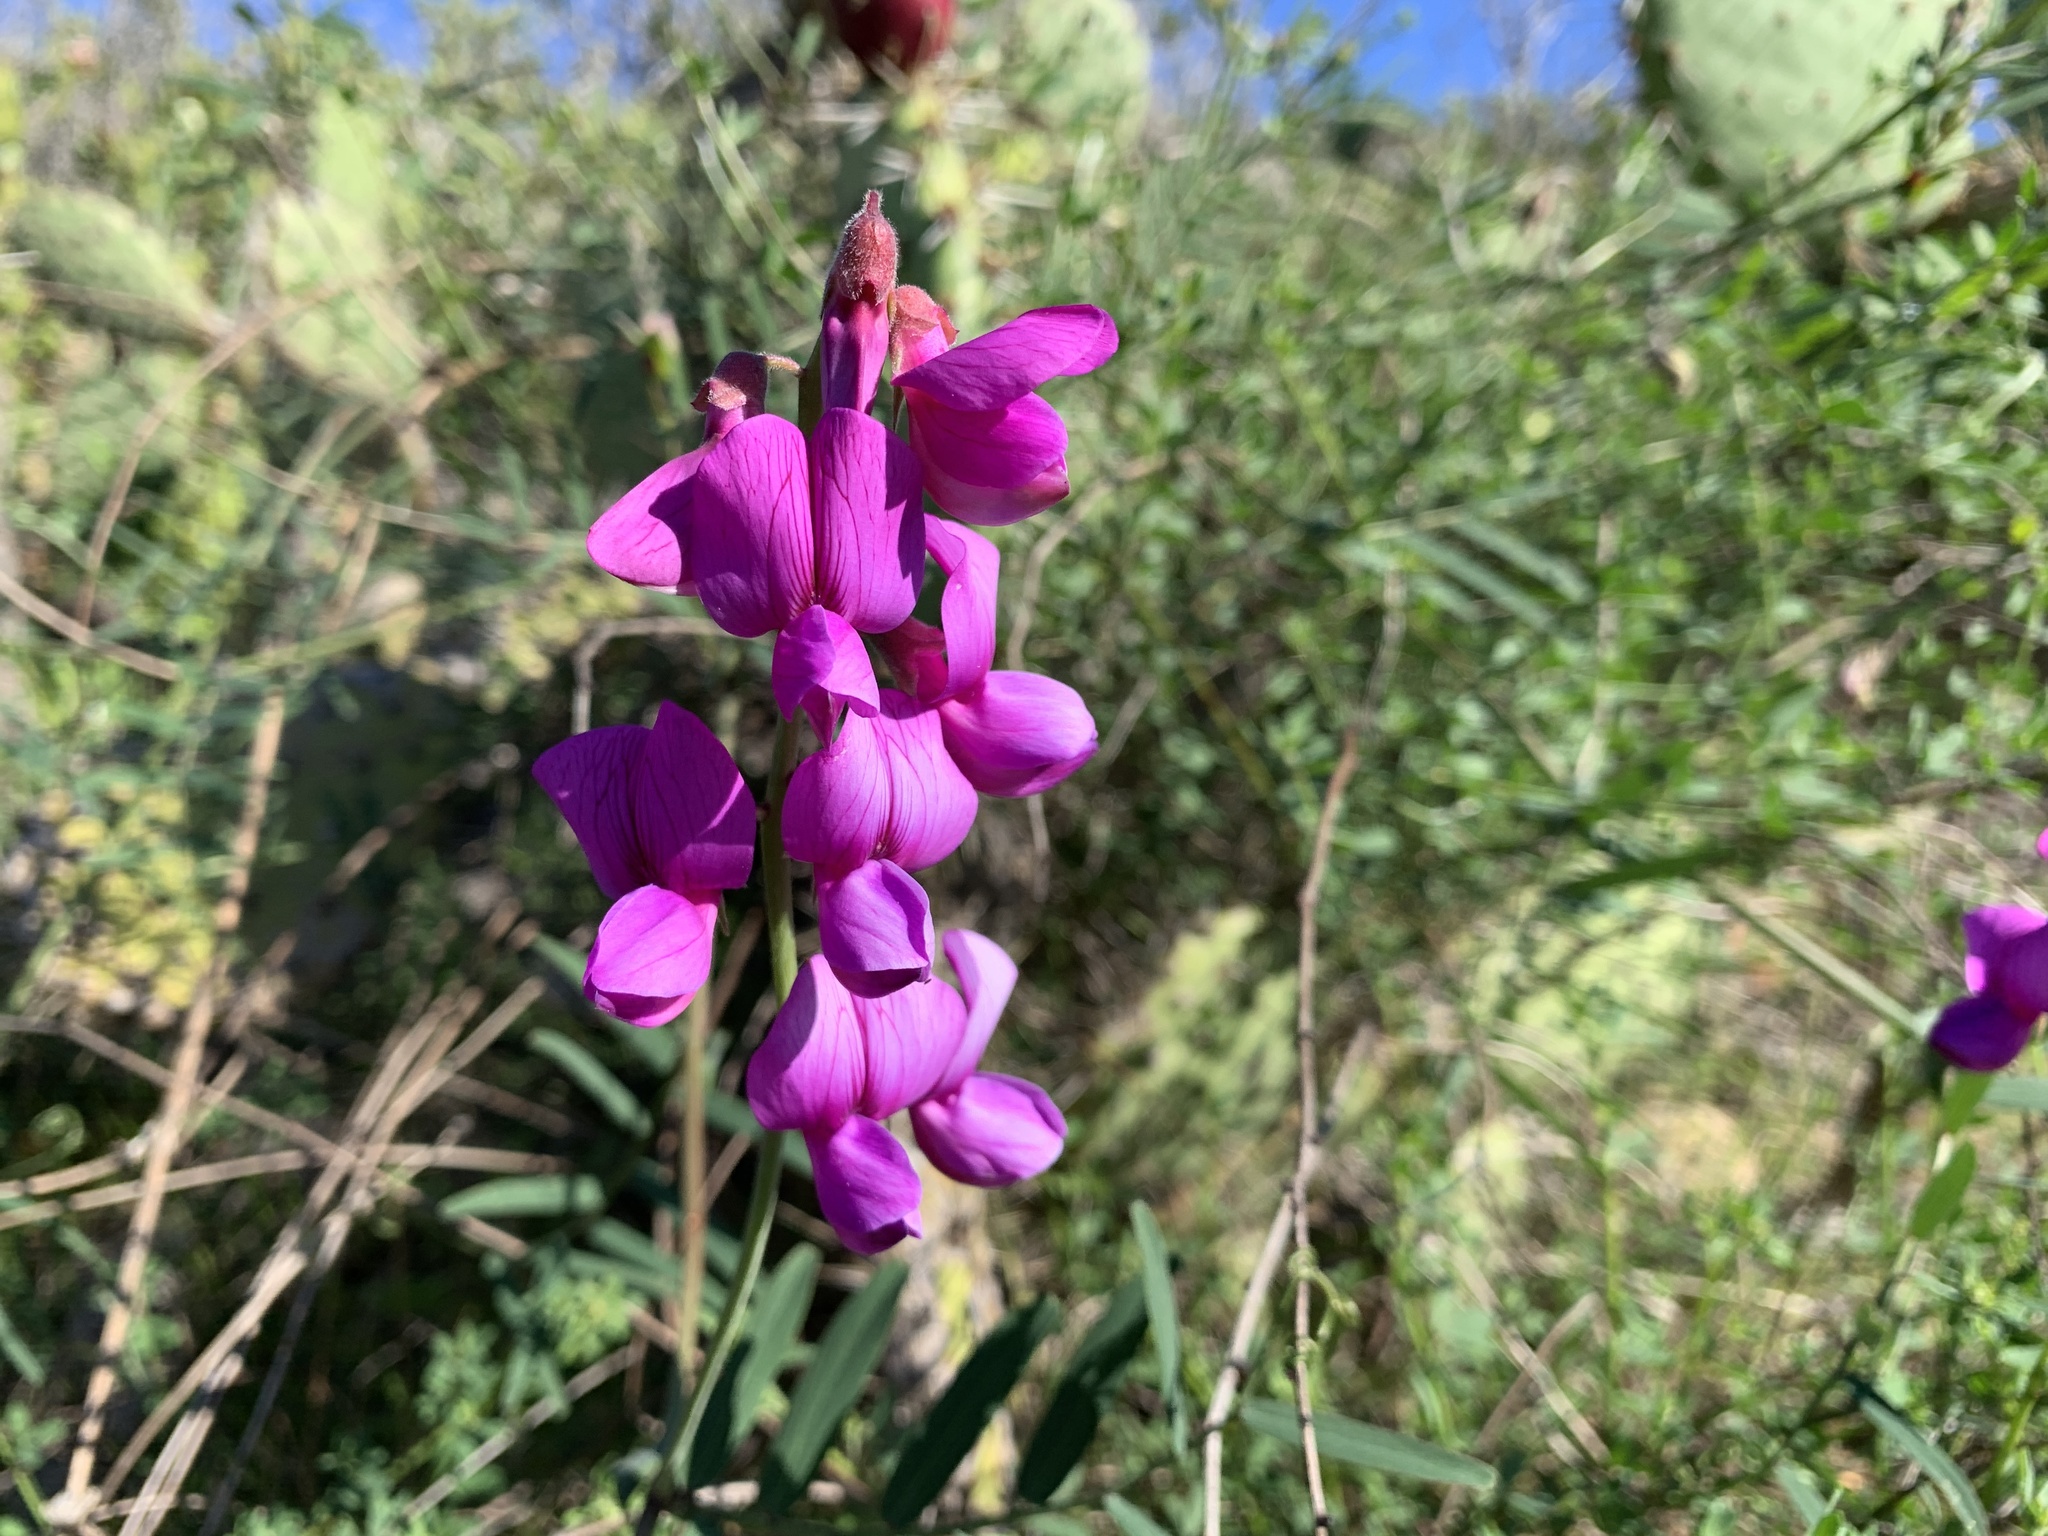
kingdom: Plantae
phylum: Tracheophyta
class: Magnoliopsida
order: Fabales
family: Fabaceae
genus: Lathyrus
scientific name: Lathyrus vestitus
